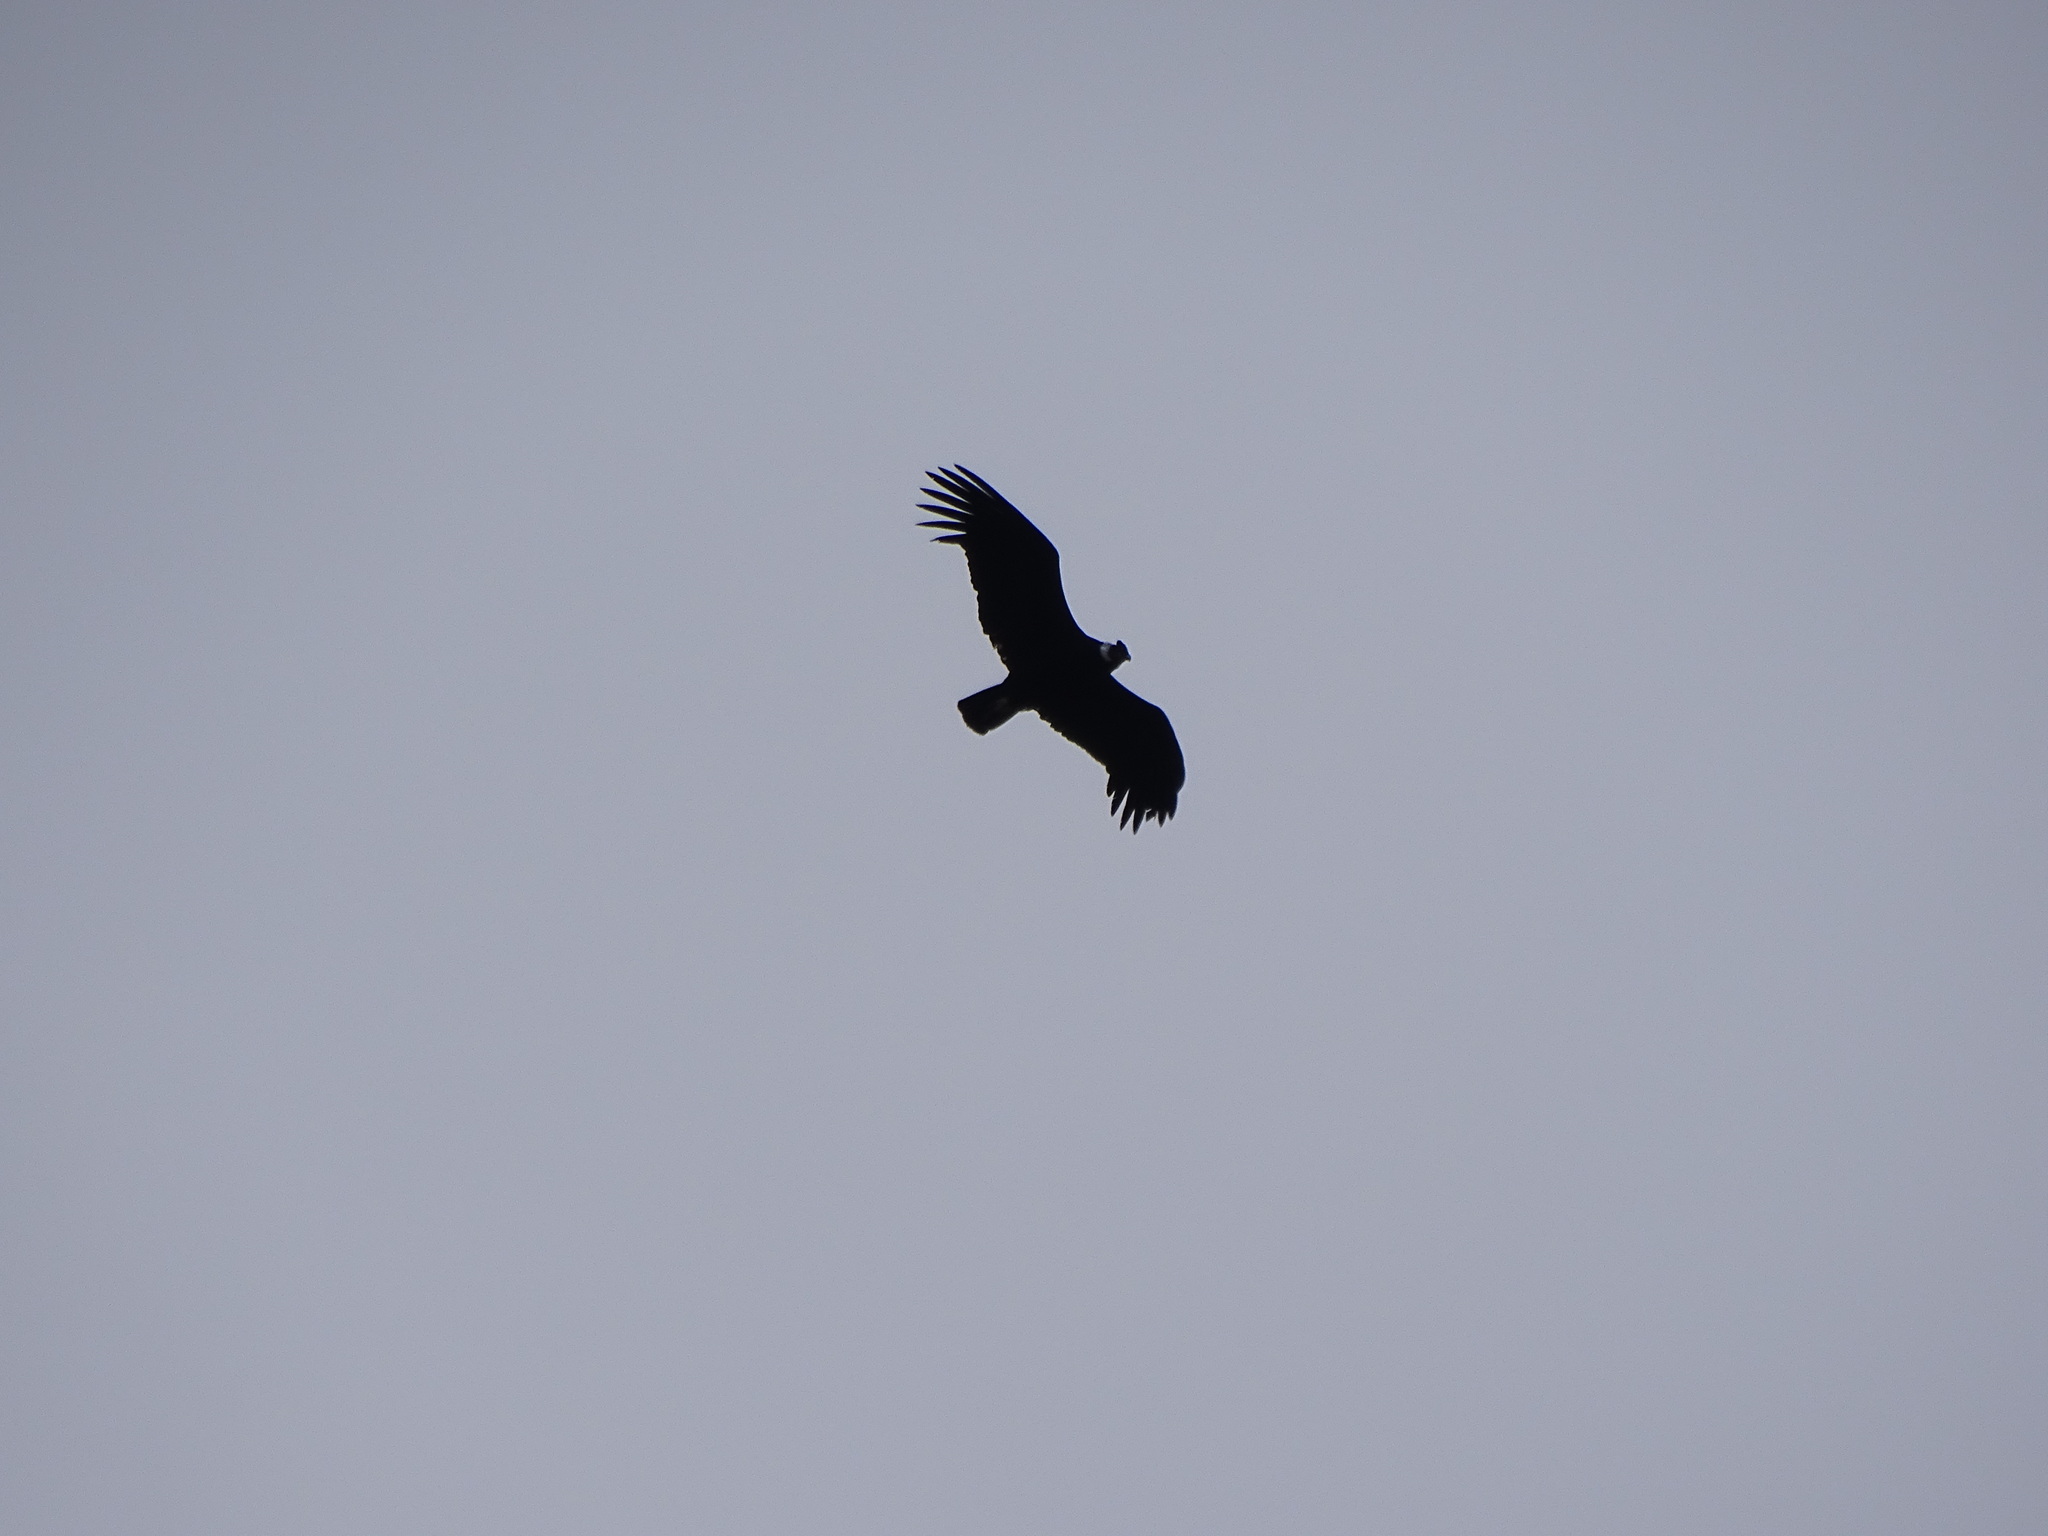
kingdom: Animalia
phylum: Chordata
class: Aves
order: Accipitriformes
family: Cathartidae
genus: Vultur
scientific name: Vultur gryphus
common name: Andean condor
